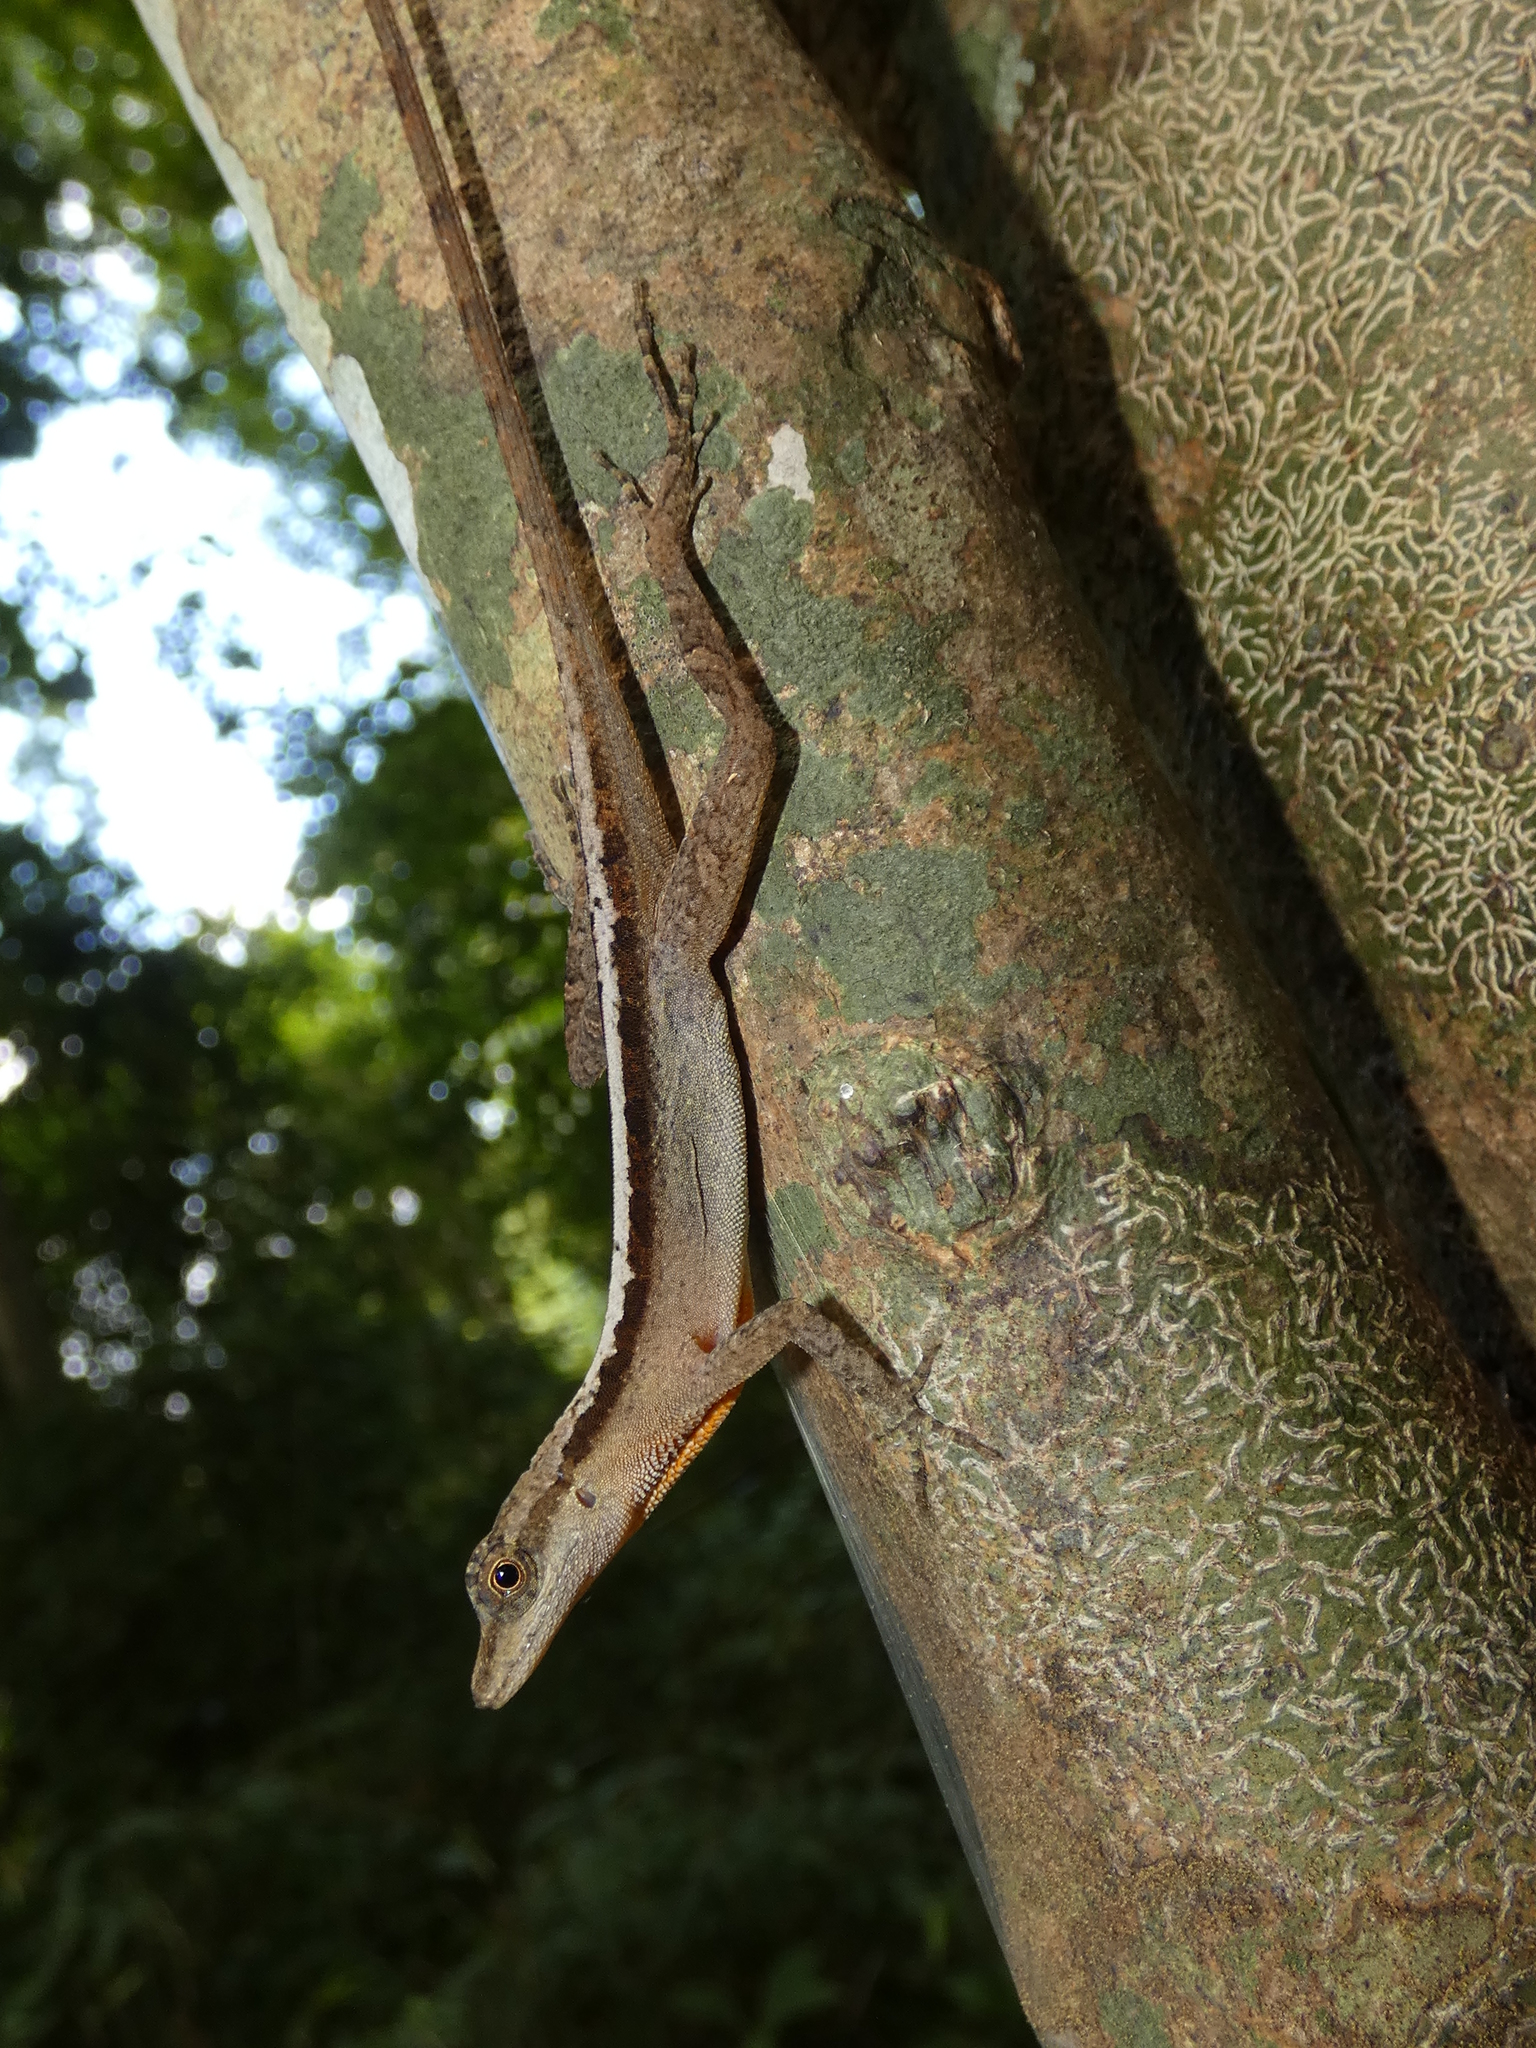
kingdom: Animalia
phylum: Chordata
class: Squamata
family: Dactyloidae
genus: Anolis
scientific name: Anolis apletophallus
